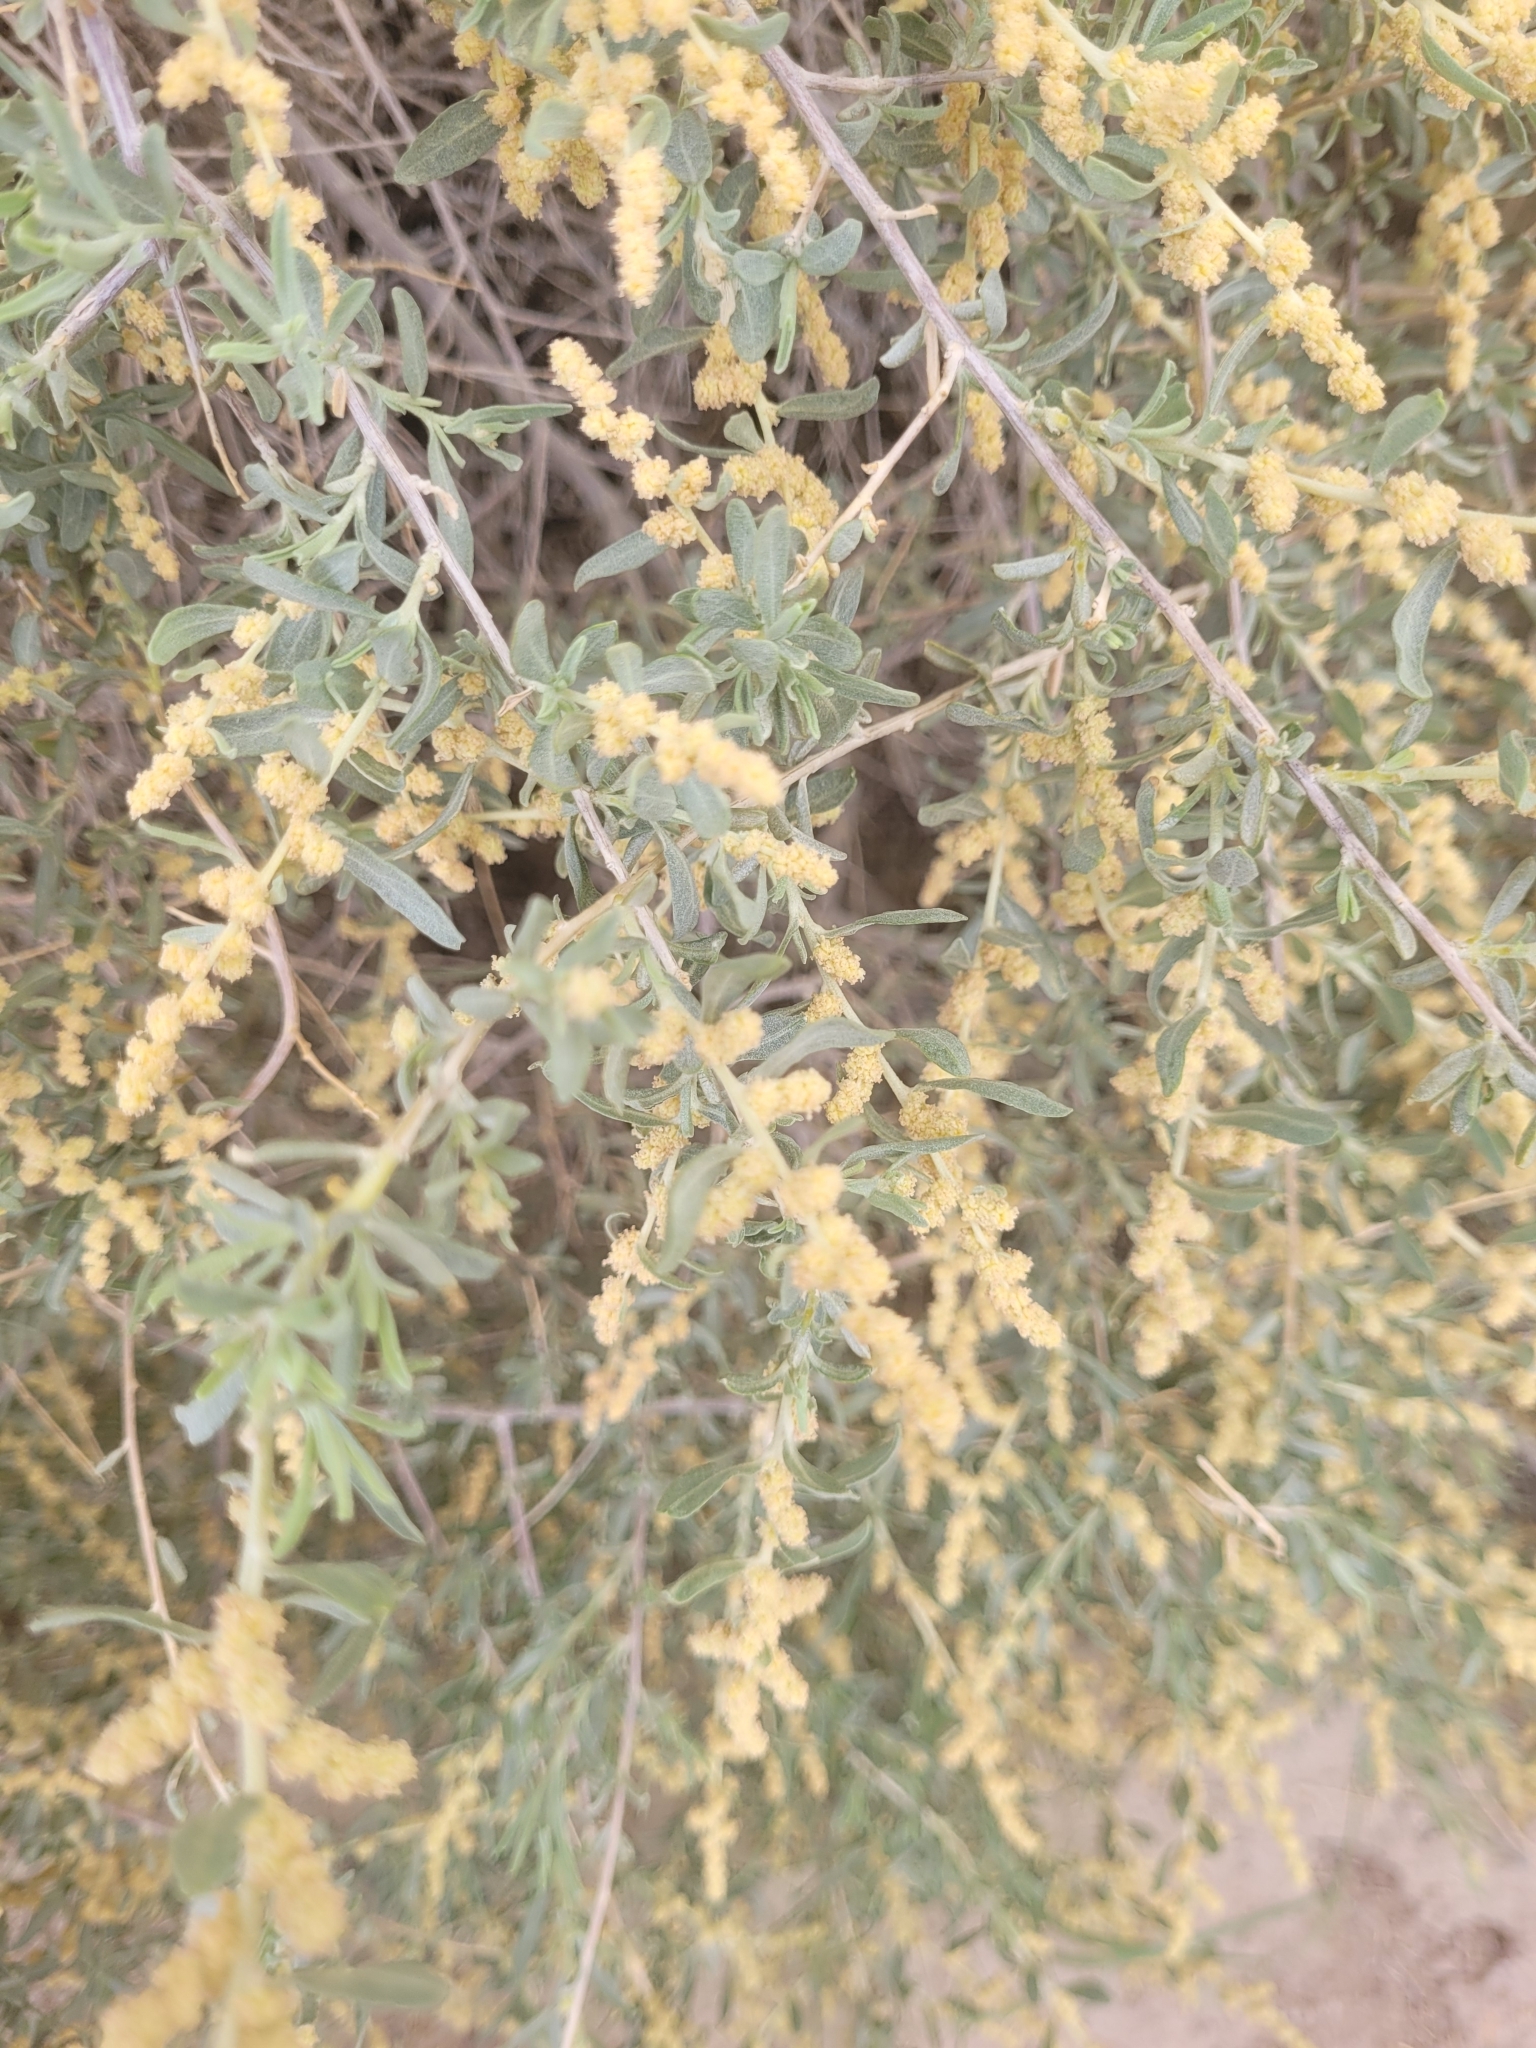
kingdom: Plantae
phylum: Tracheophyta
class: Magnoliopsida
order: Caryophyllales
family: Amaranthaceae
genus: Atriplex
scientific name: Atriplex canescens
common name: Four-wing saltbush
